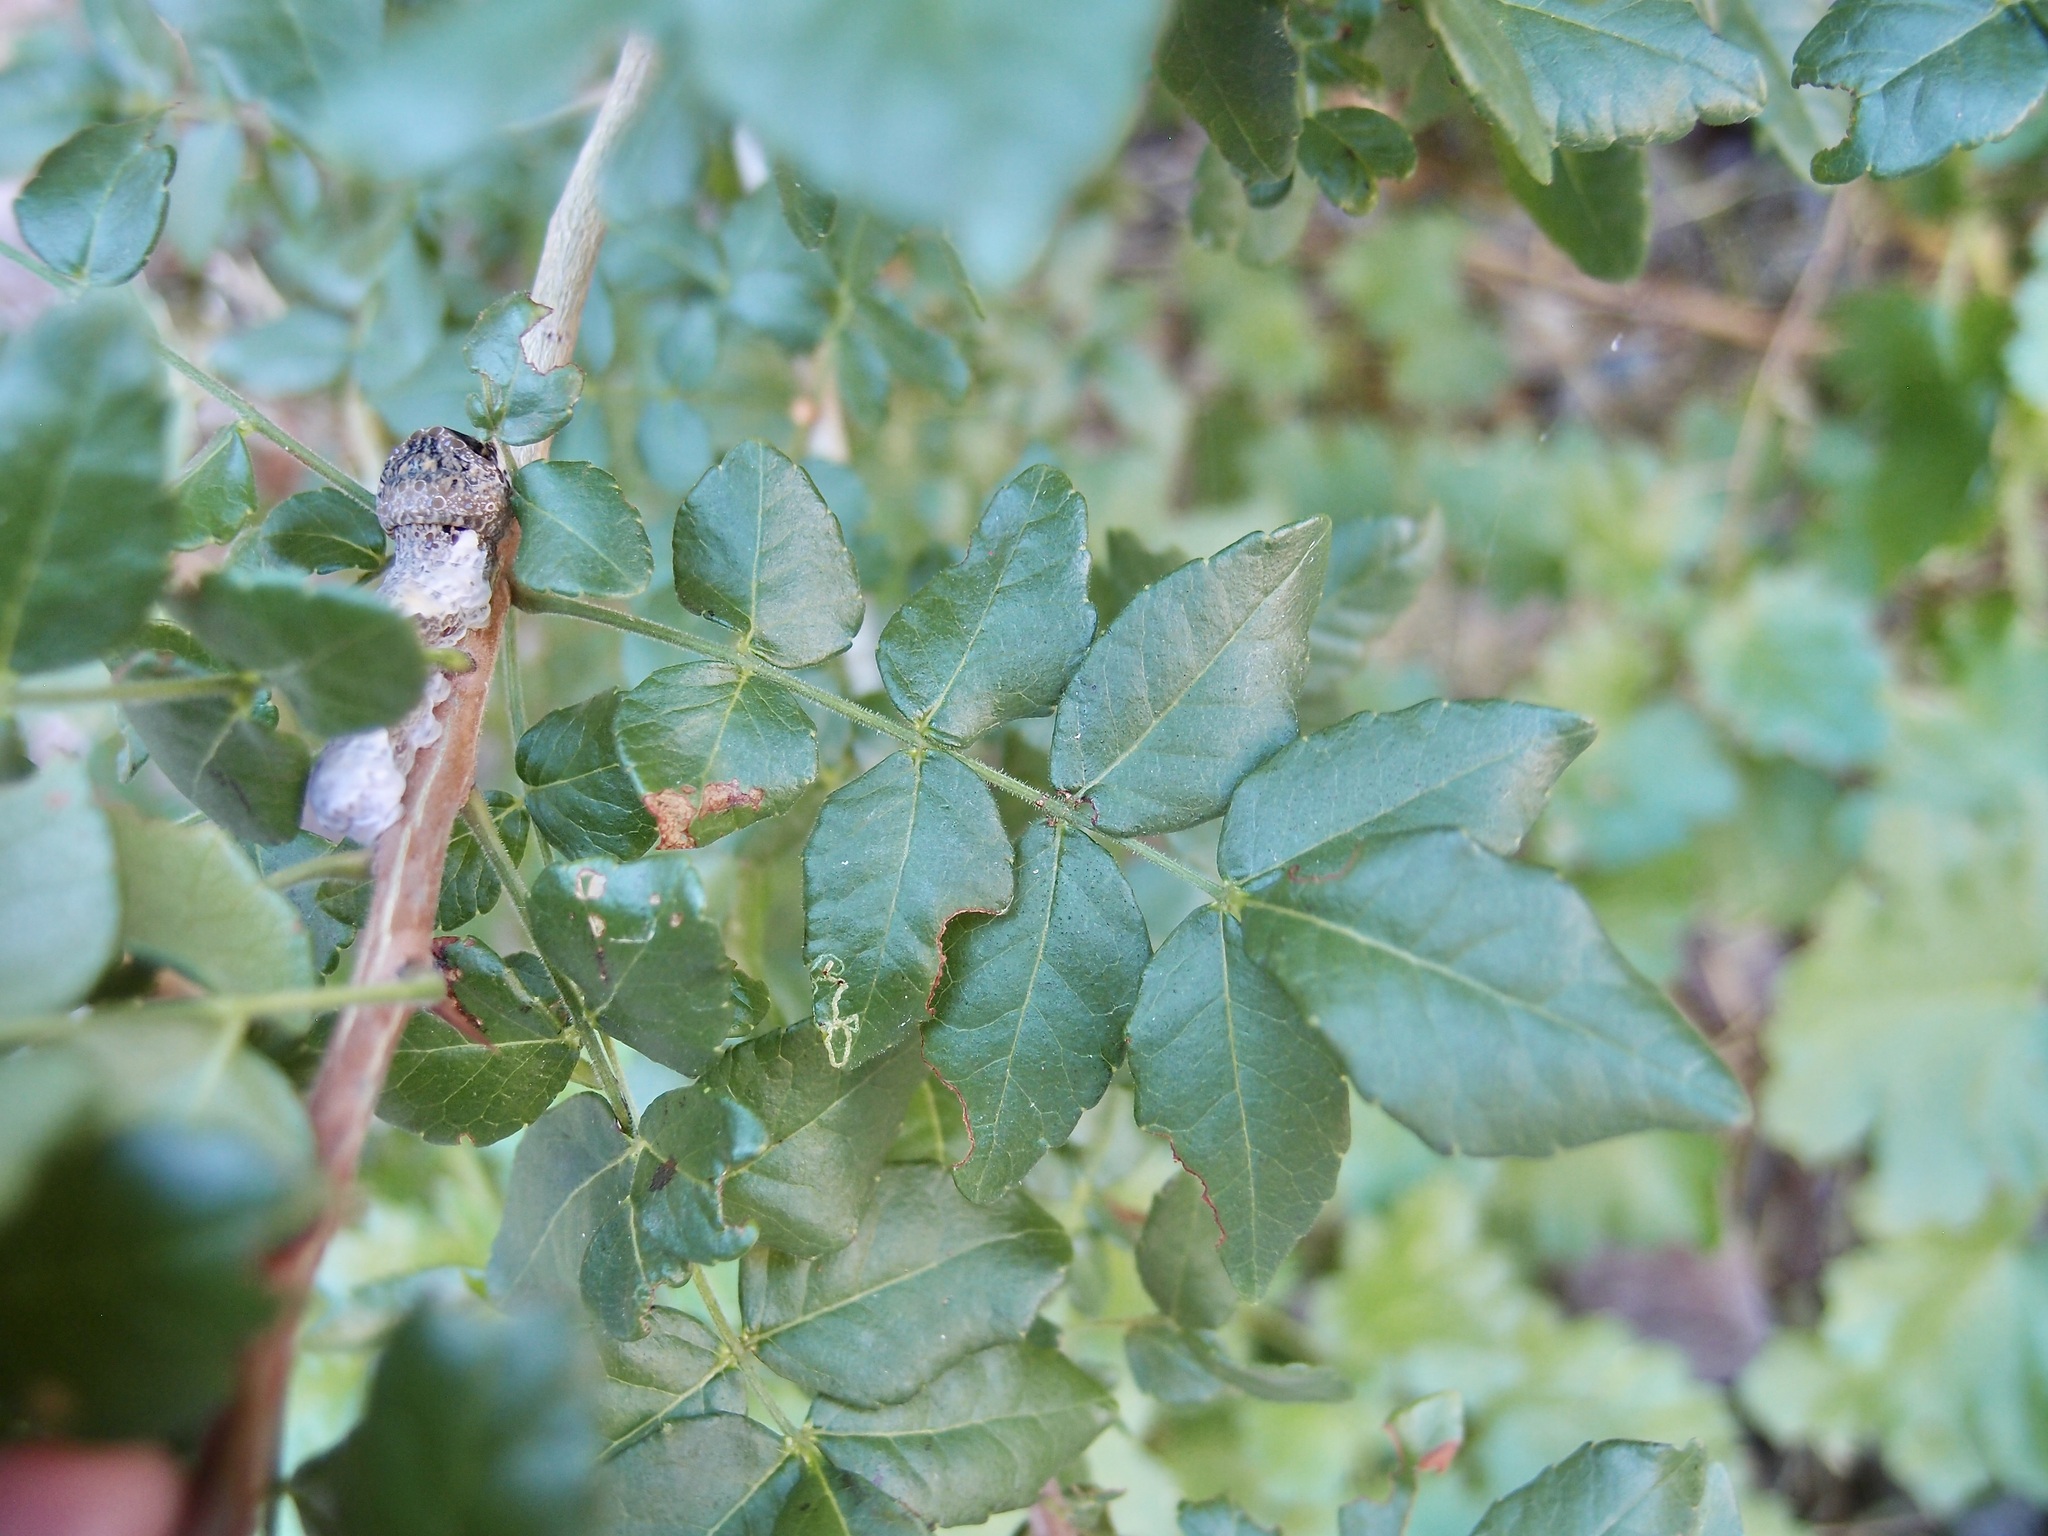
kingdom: Plantae
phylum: Tracheophyta
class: Magnoliopsida
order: Sapindales
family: Rutaceae
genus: Zanthoxylum
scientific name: Zanthoxylum ciliatum
